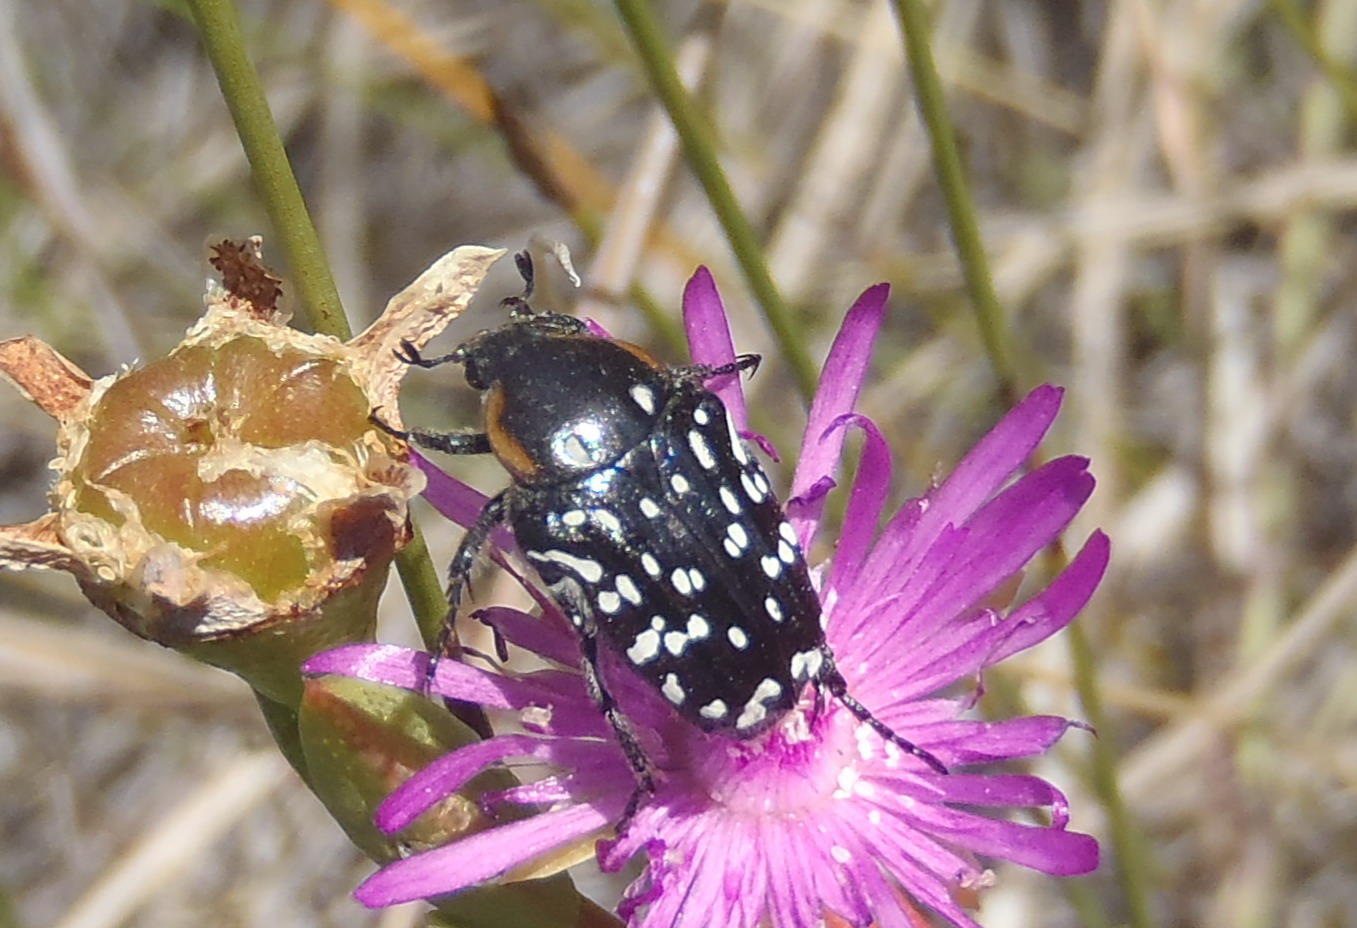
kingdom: Animalia
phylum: Arthropoda
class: Insecta
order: Coleoptera
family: Scarabaeidae
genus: Oxythyrea
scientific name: Oxythyrea
